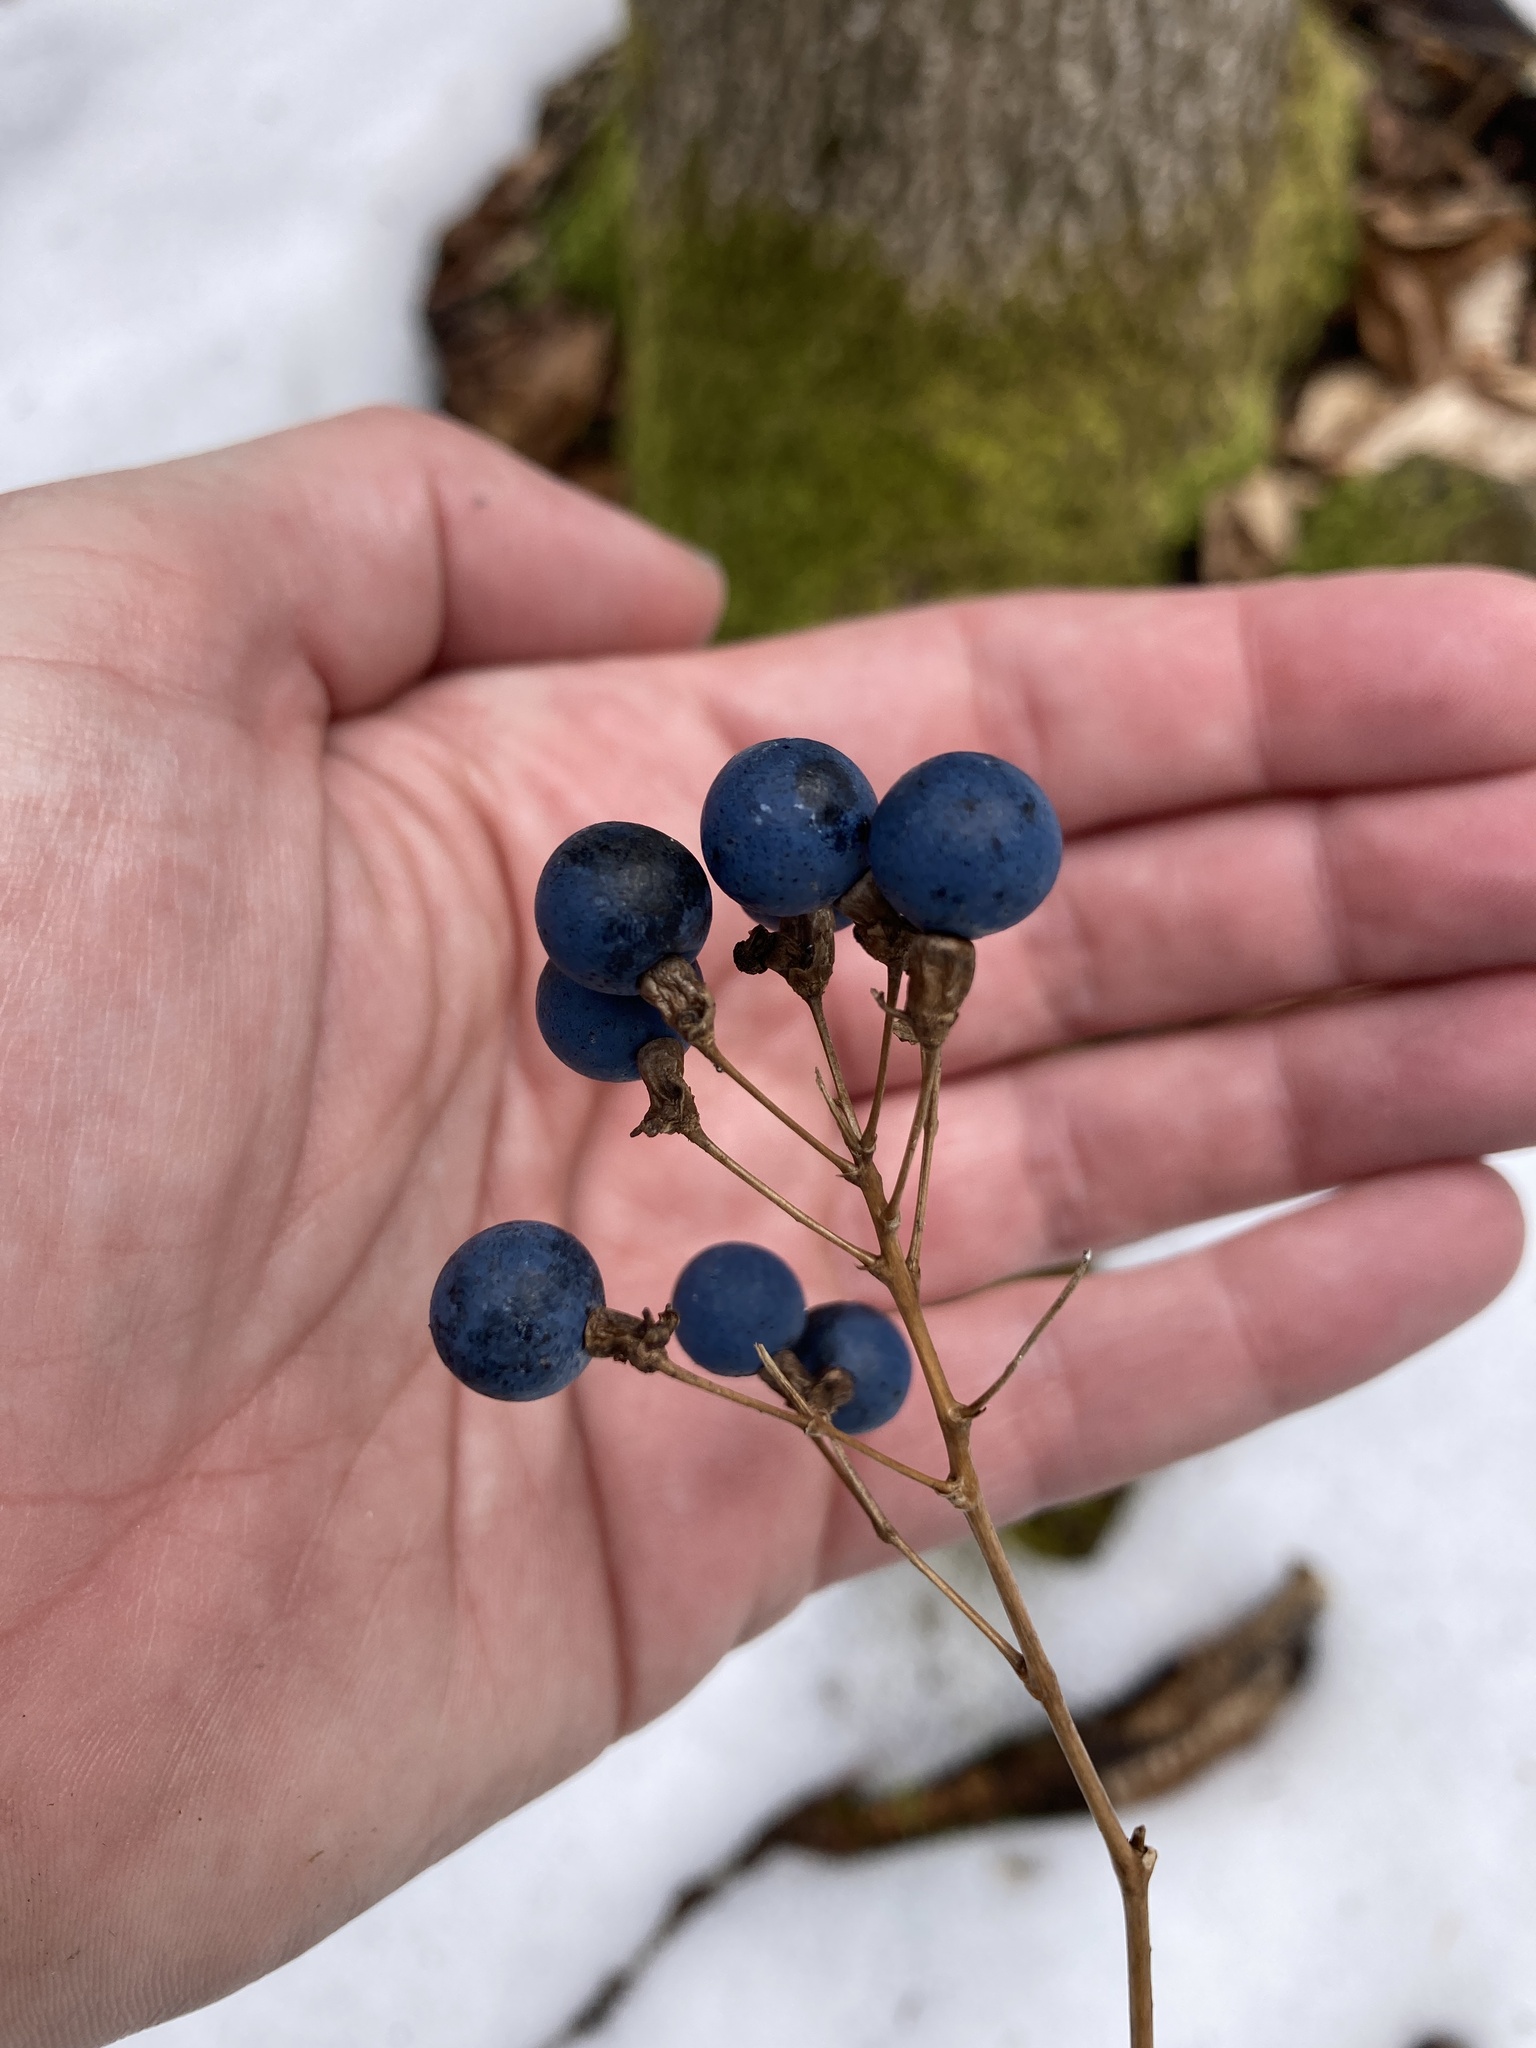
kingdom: Plantae
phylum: Tracheophyta
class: Magnoliopsida
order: Ranunculales
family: Berberidaceae
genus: Caulophyllum
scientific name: Caulophyllum thalictroides
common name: Blue cohosh
